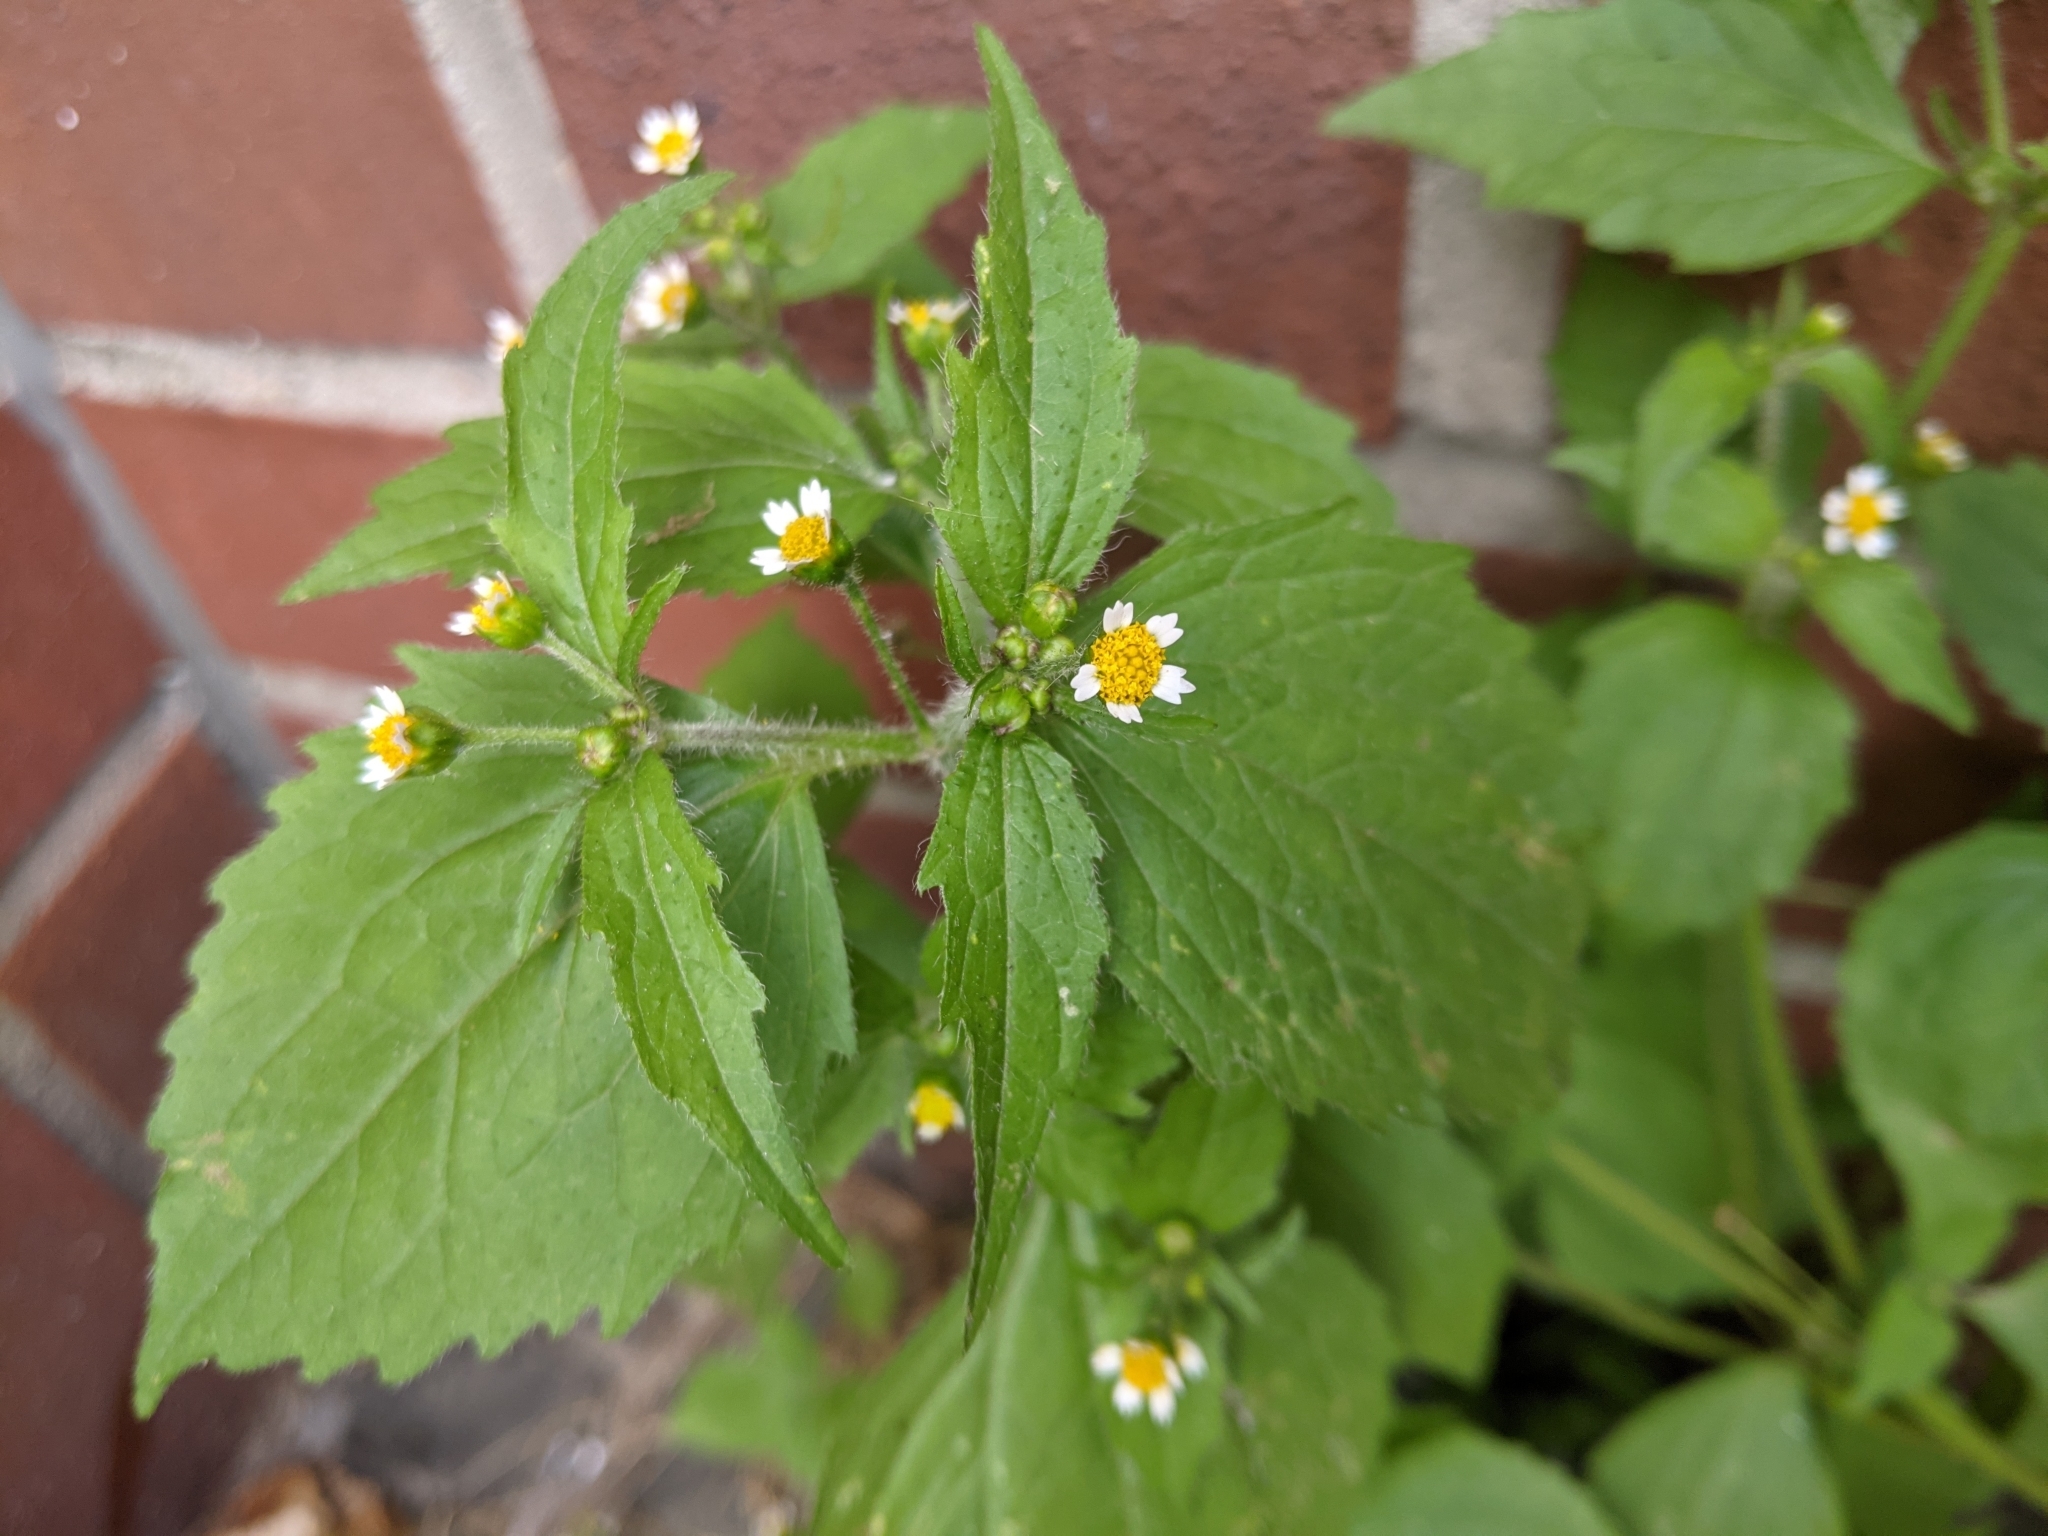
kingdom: Plantae
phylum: Tracheophyta
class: Magnoliopsida
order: Asterales
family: Asteraceae
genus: Galinsoga
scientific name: Galinsoga quadriradiata
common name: Shaggy soldier
